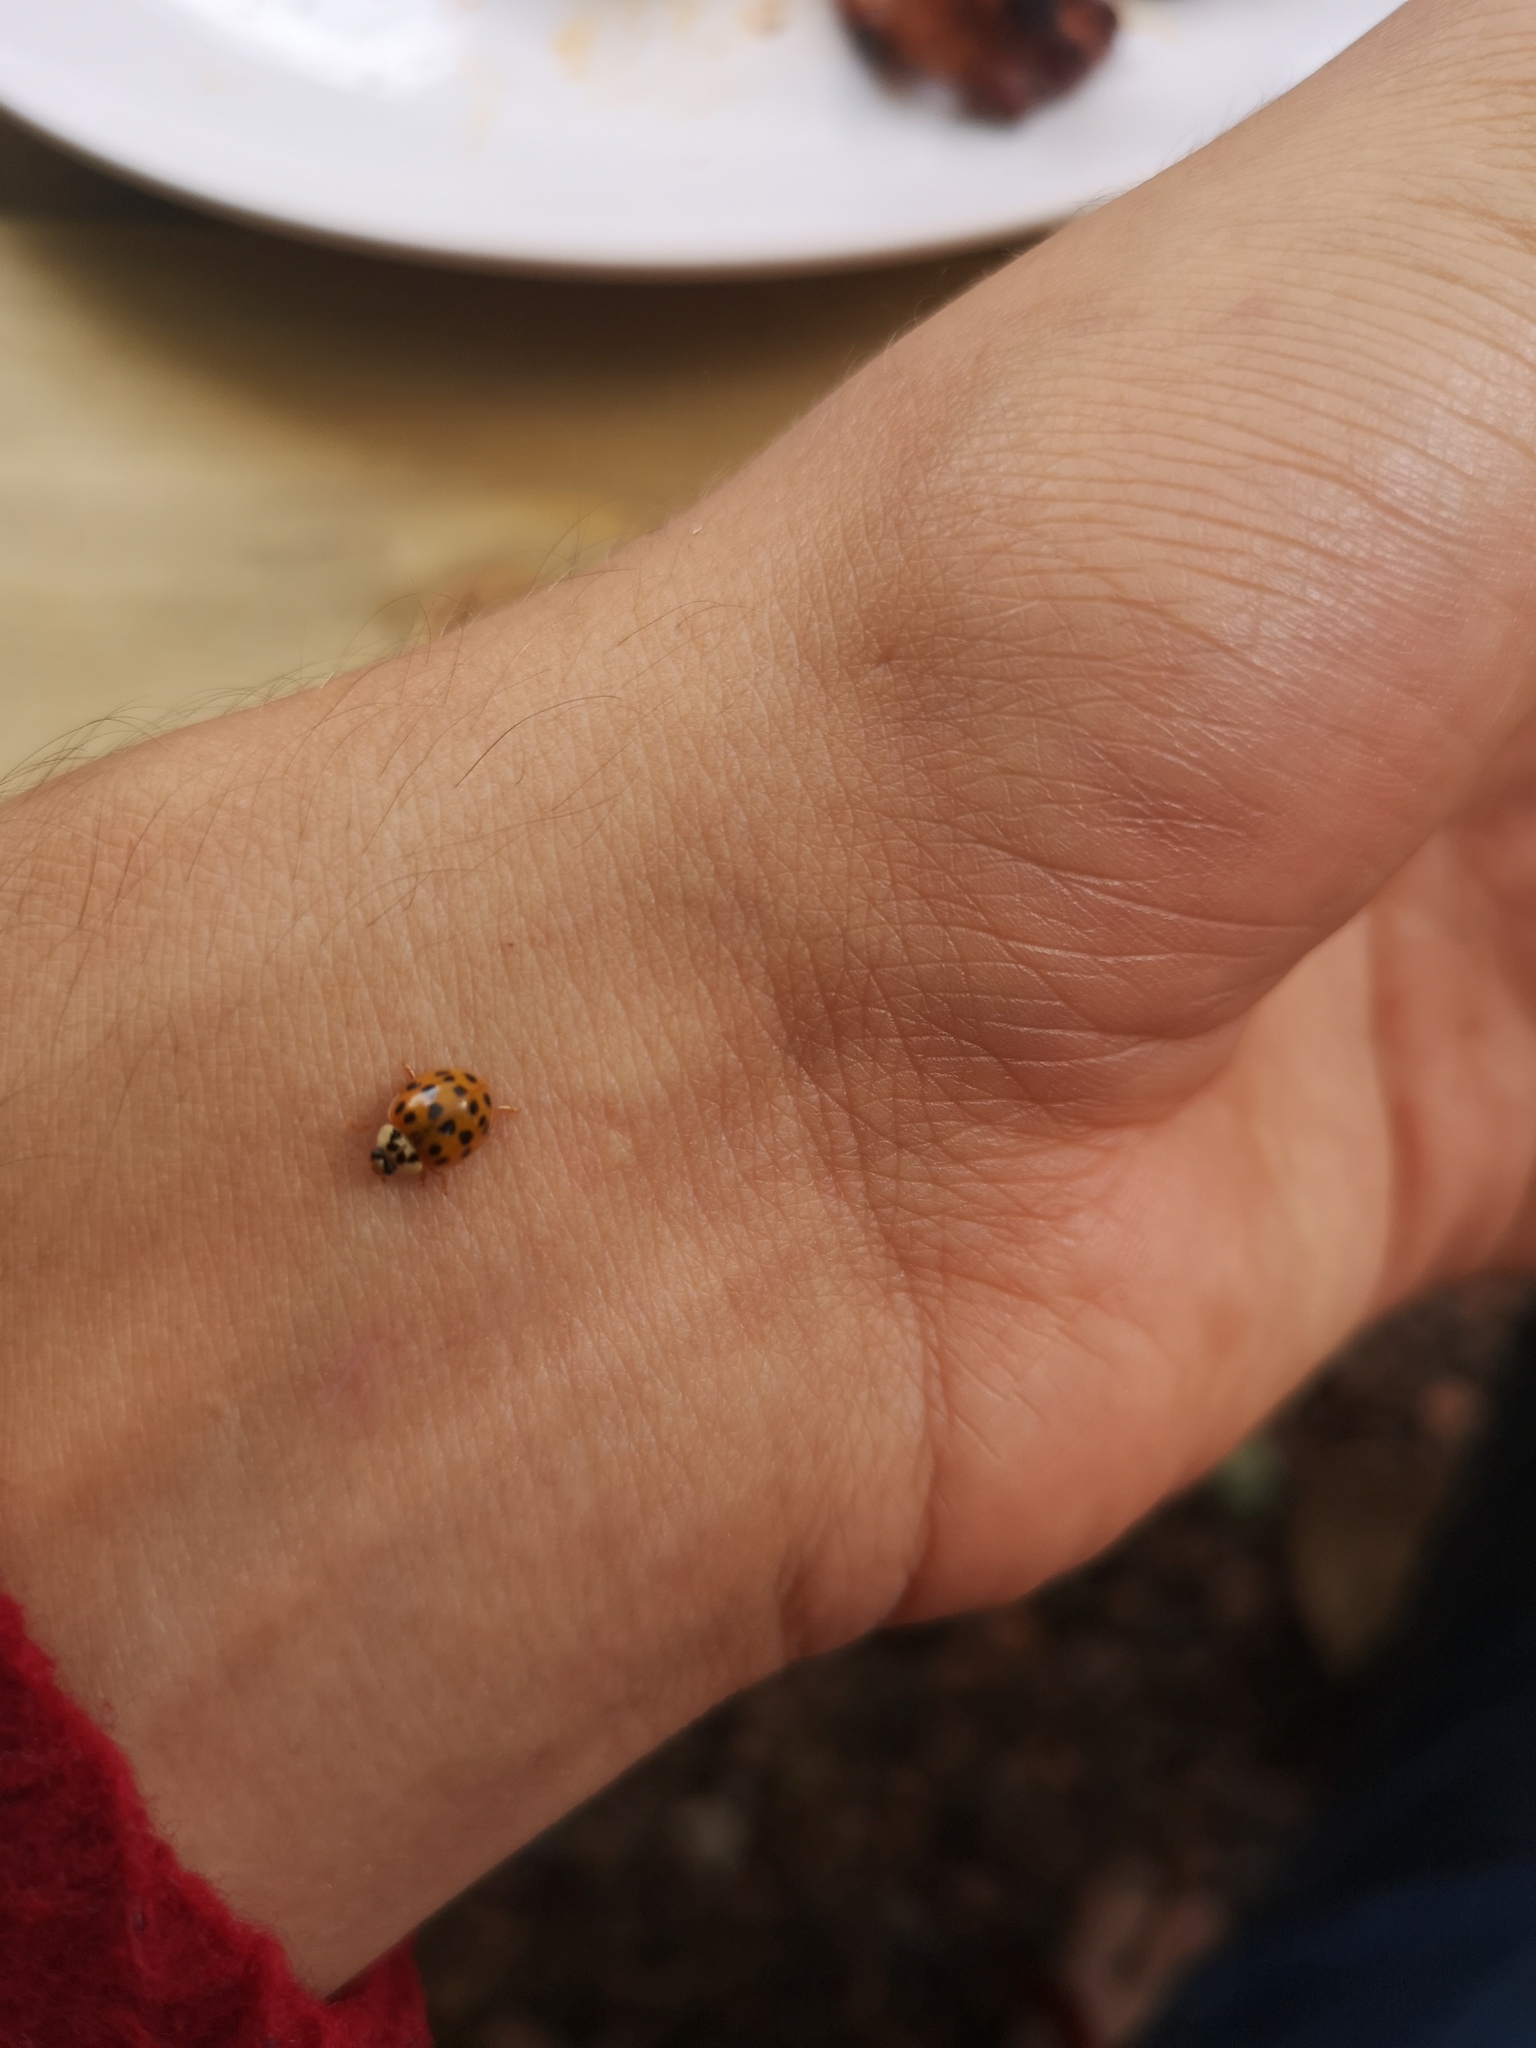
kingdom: Animalia
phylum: Arthropoda
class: Insecta
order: Coleoptera
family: Coccinellidae
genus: Harmonia
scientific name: Harmonia axyridis
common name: Harlequin ladybird
